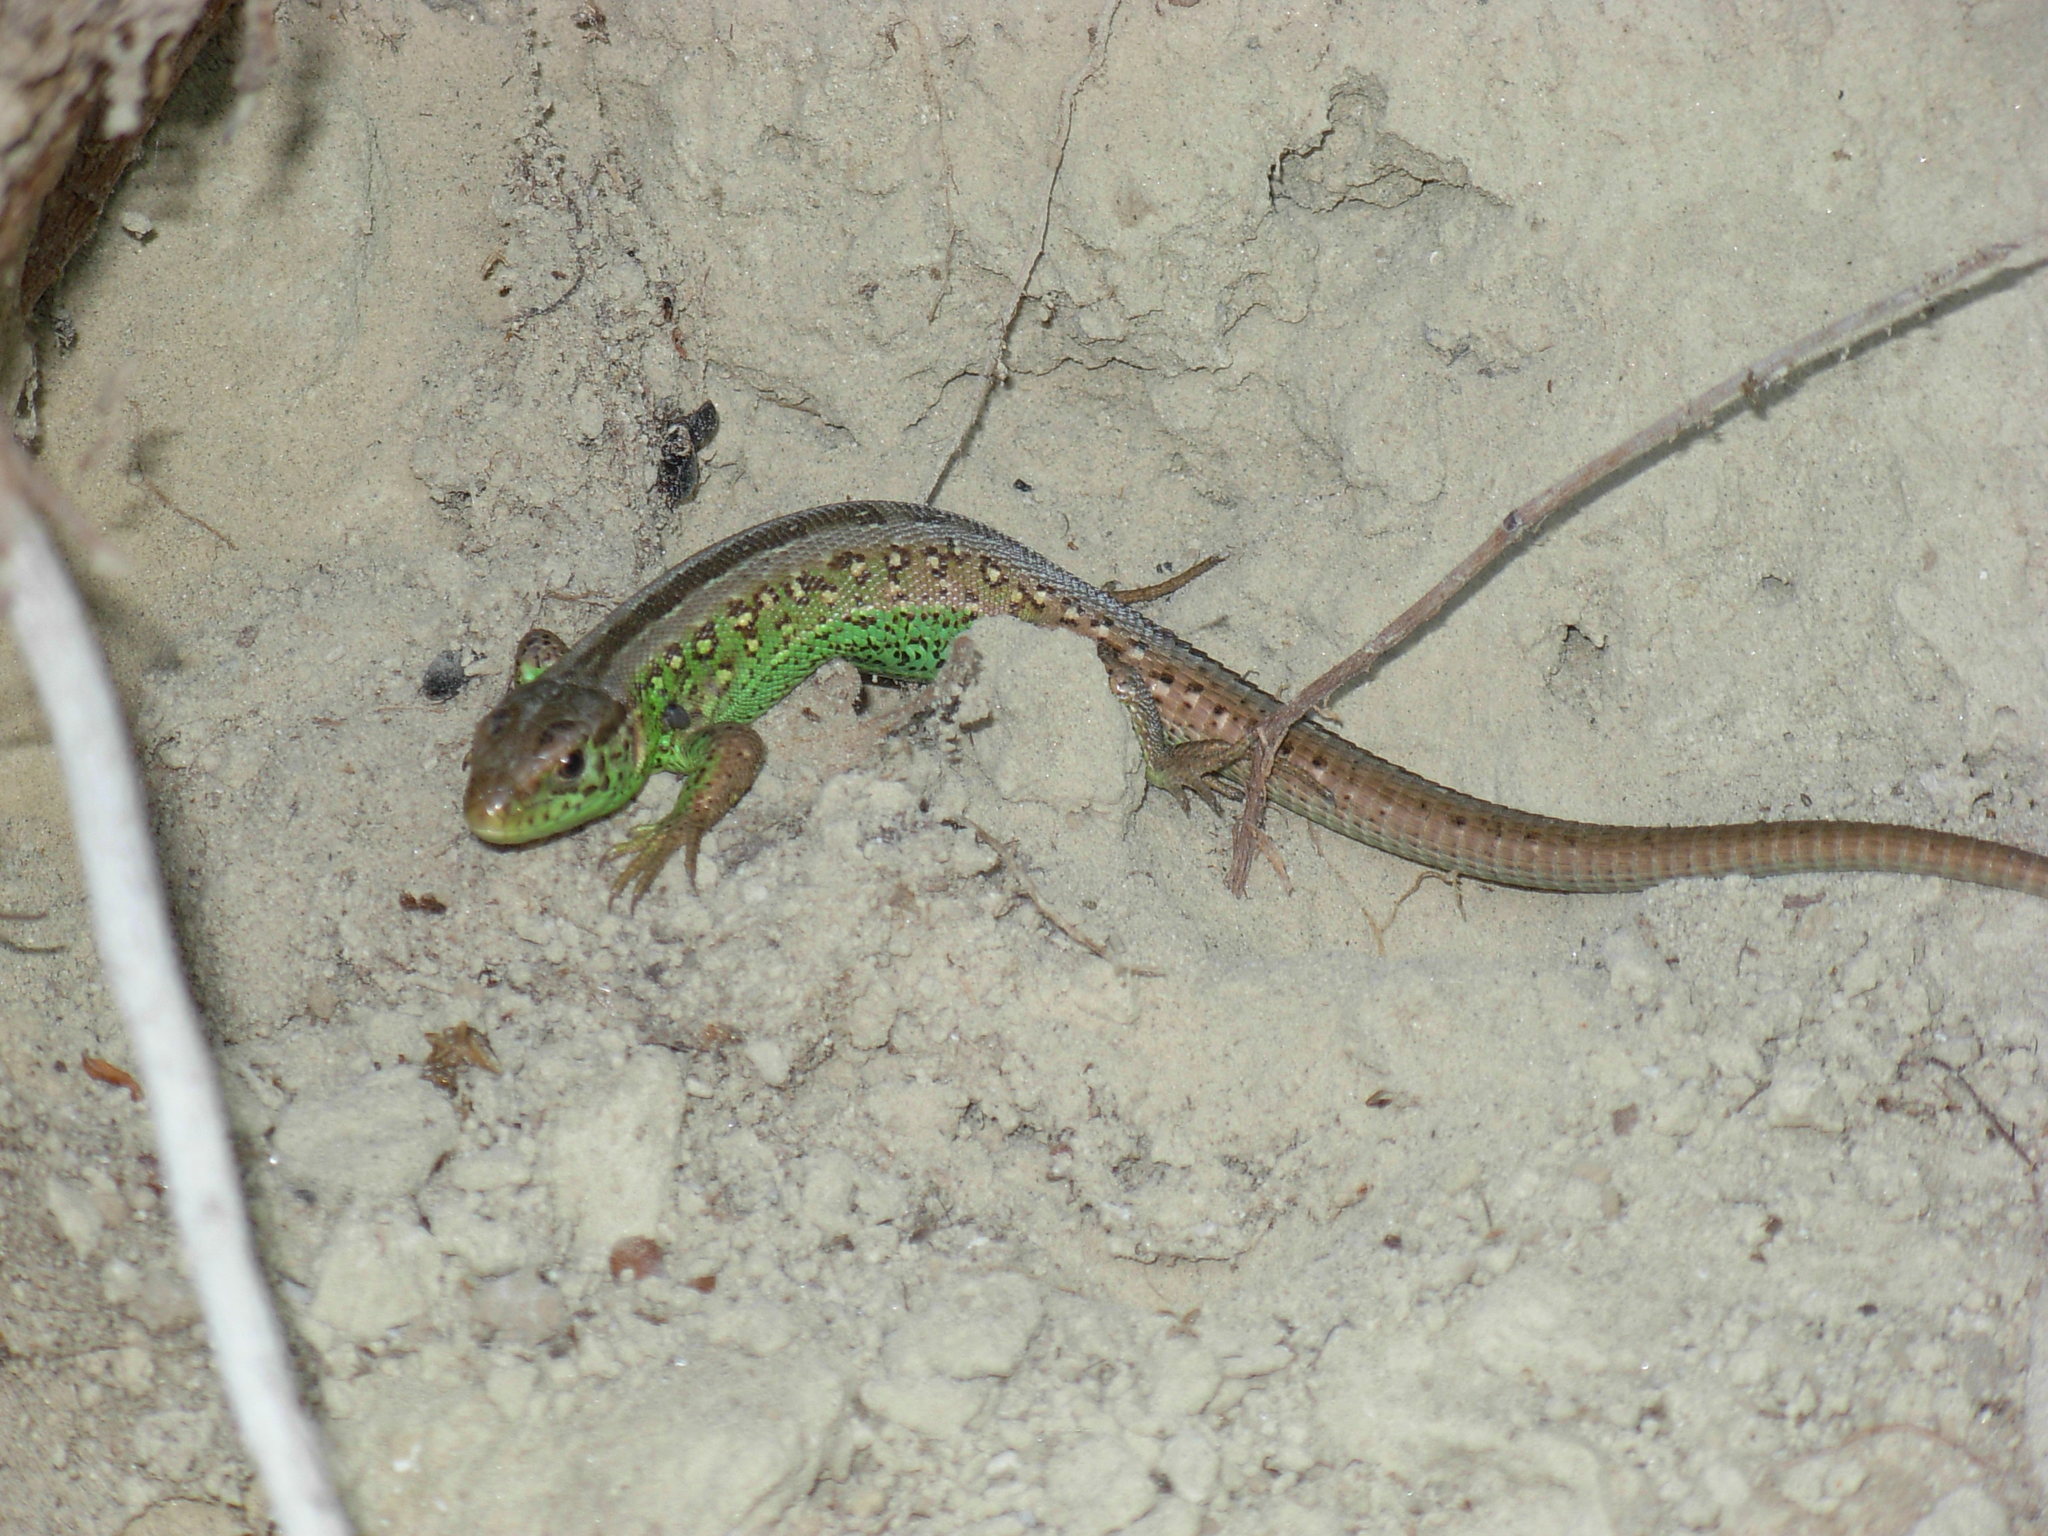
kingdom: Animalia
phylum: Chordata
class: Squamata
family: Lacertidae
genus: Lacerta
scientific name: Lacerta agilis
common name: Sand lizard
